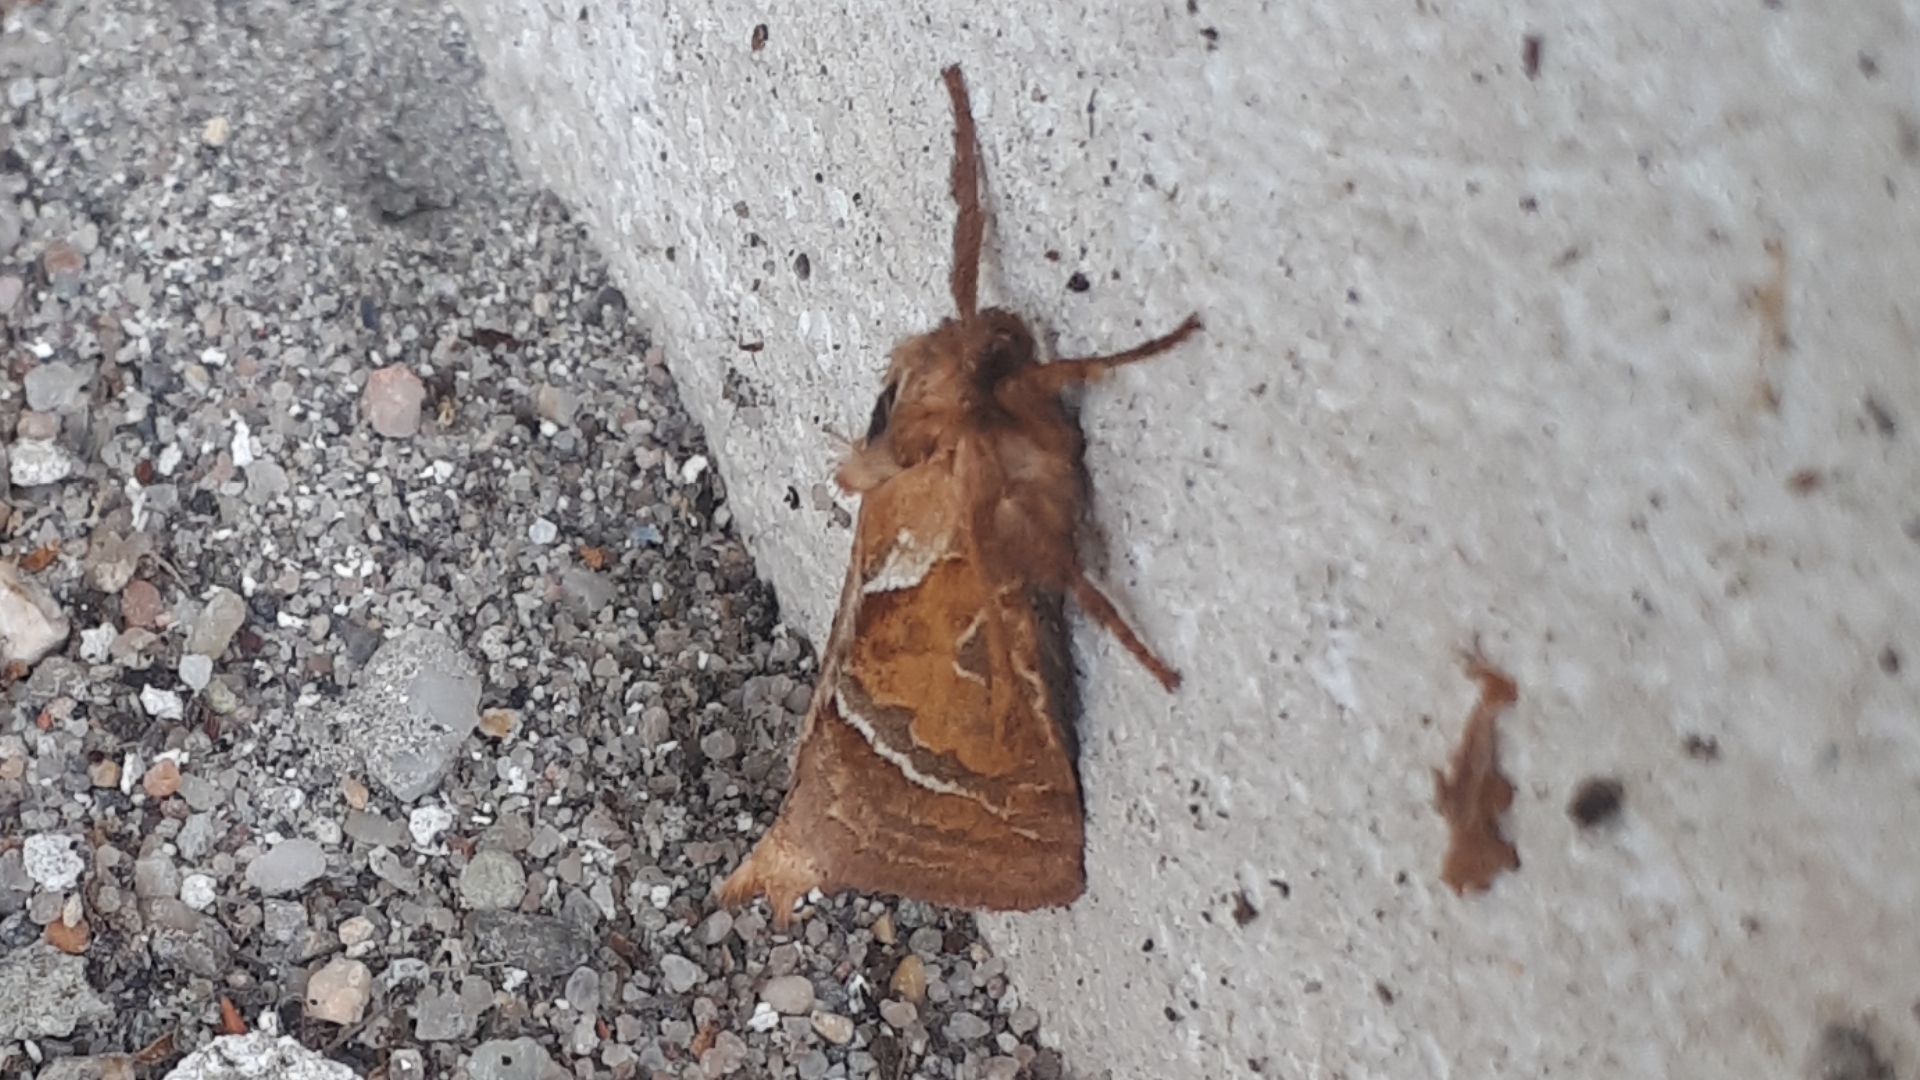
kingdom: Animalia
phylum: Arthropoda
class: Insecta
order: Lepidoptera
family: Hepialidae
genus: Triodia
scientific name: Triodia sylvina
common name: Orange swift
